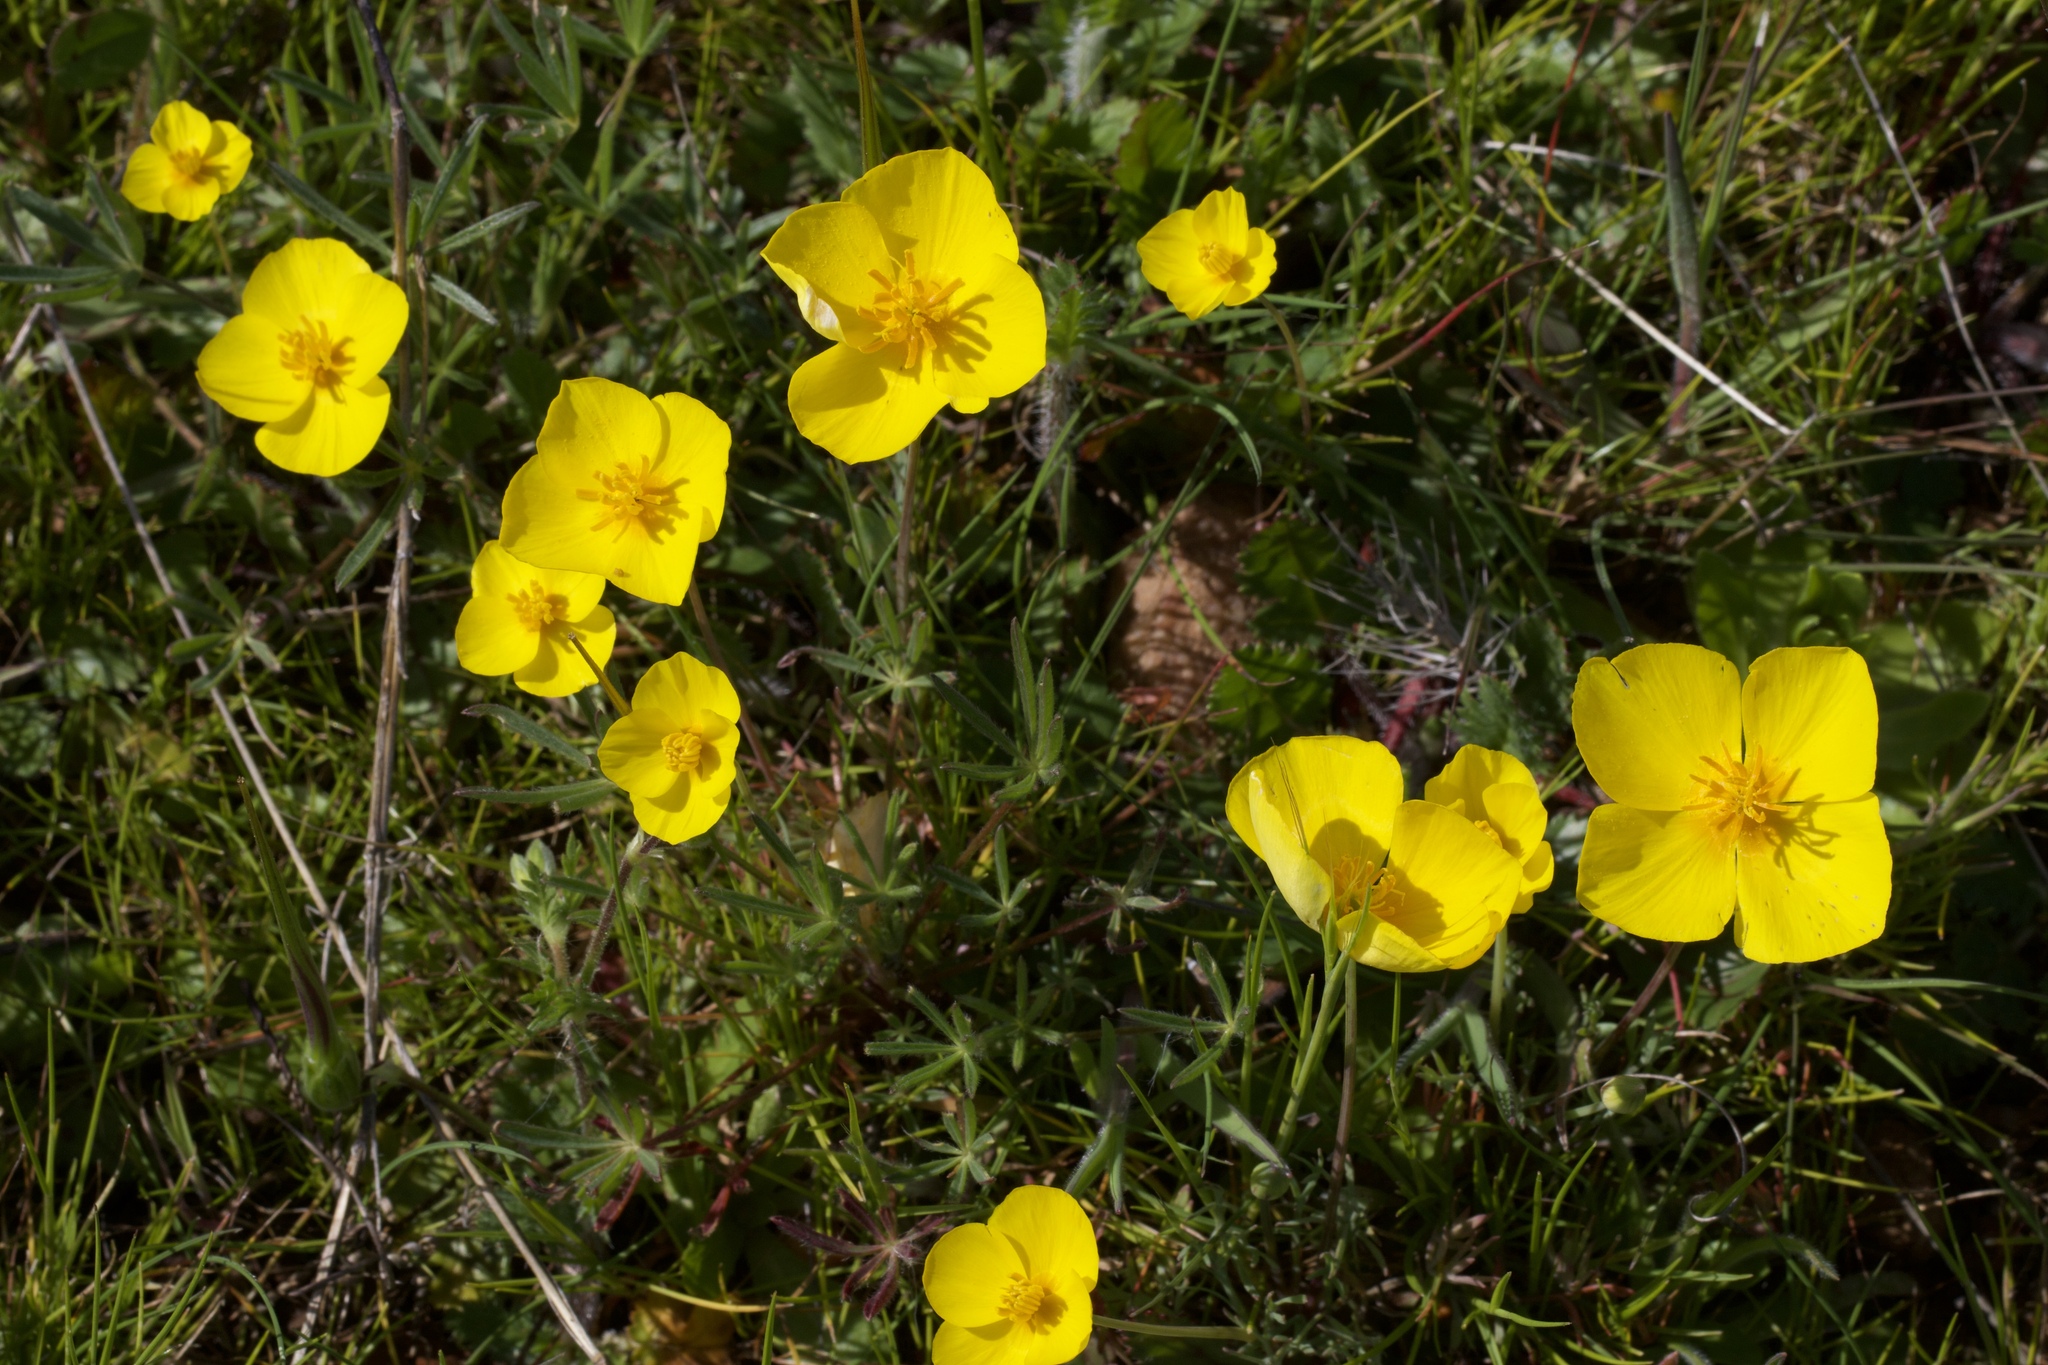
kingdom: Plantae
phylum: Tracheophyta
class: Magnoliopsida
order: Ranunculales
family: Papaveraceae
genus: Eschscholzia
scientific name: Eschscholzia lobbii
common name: Frying-pans
